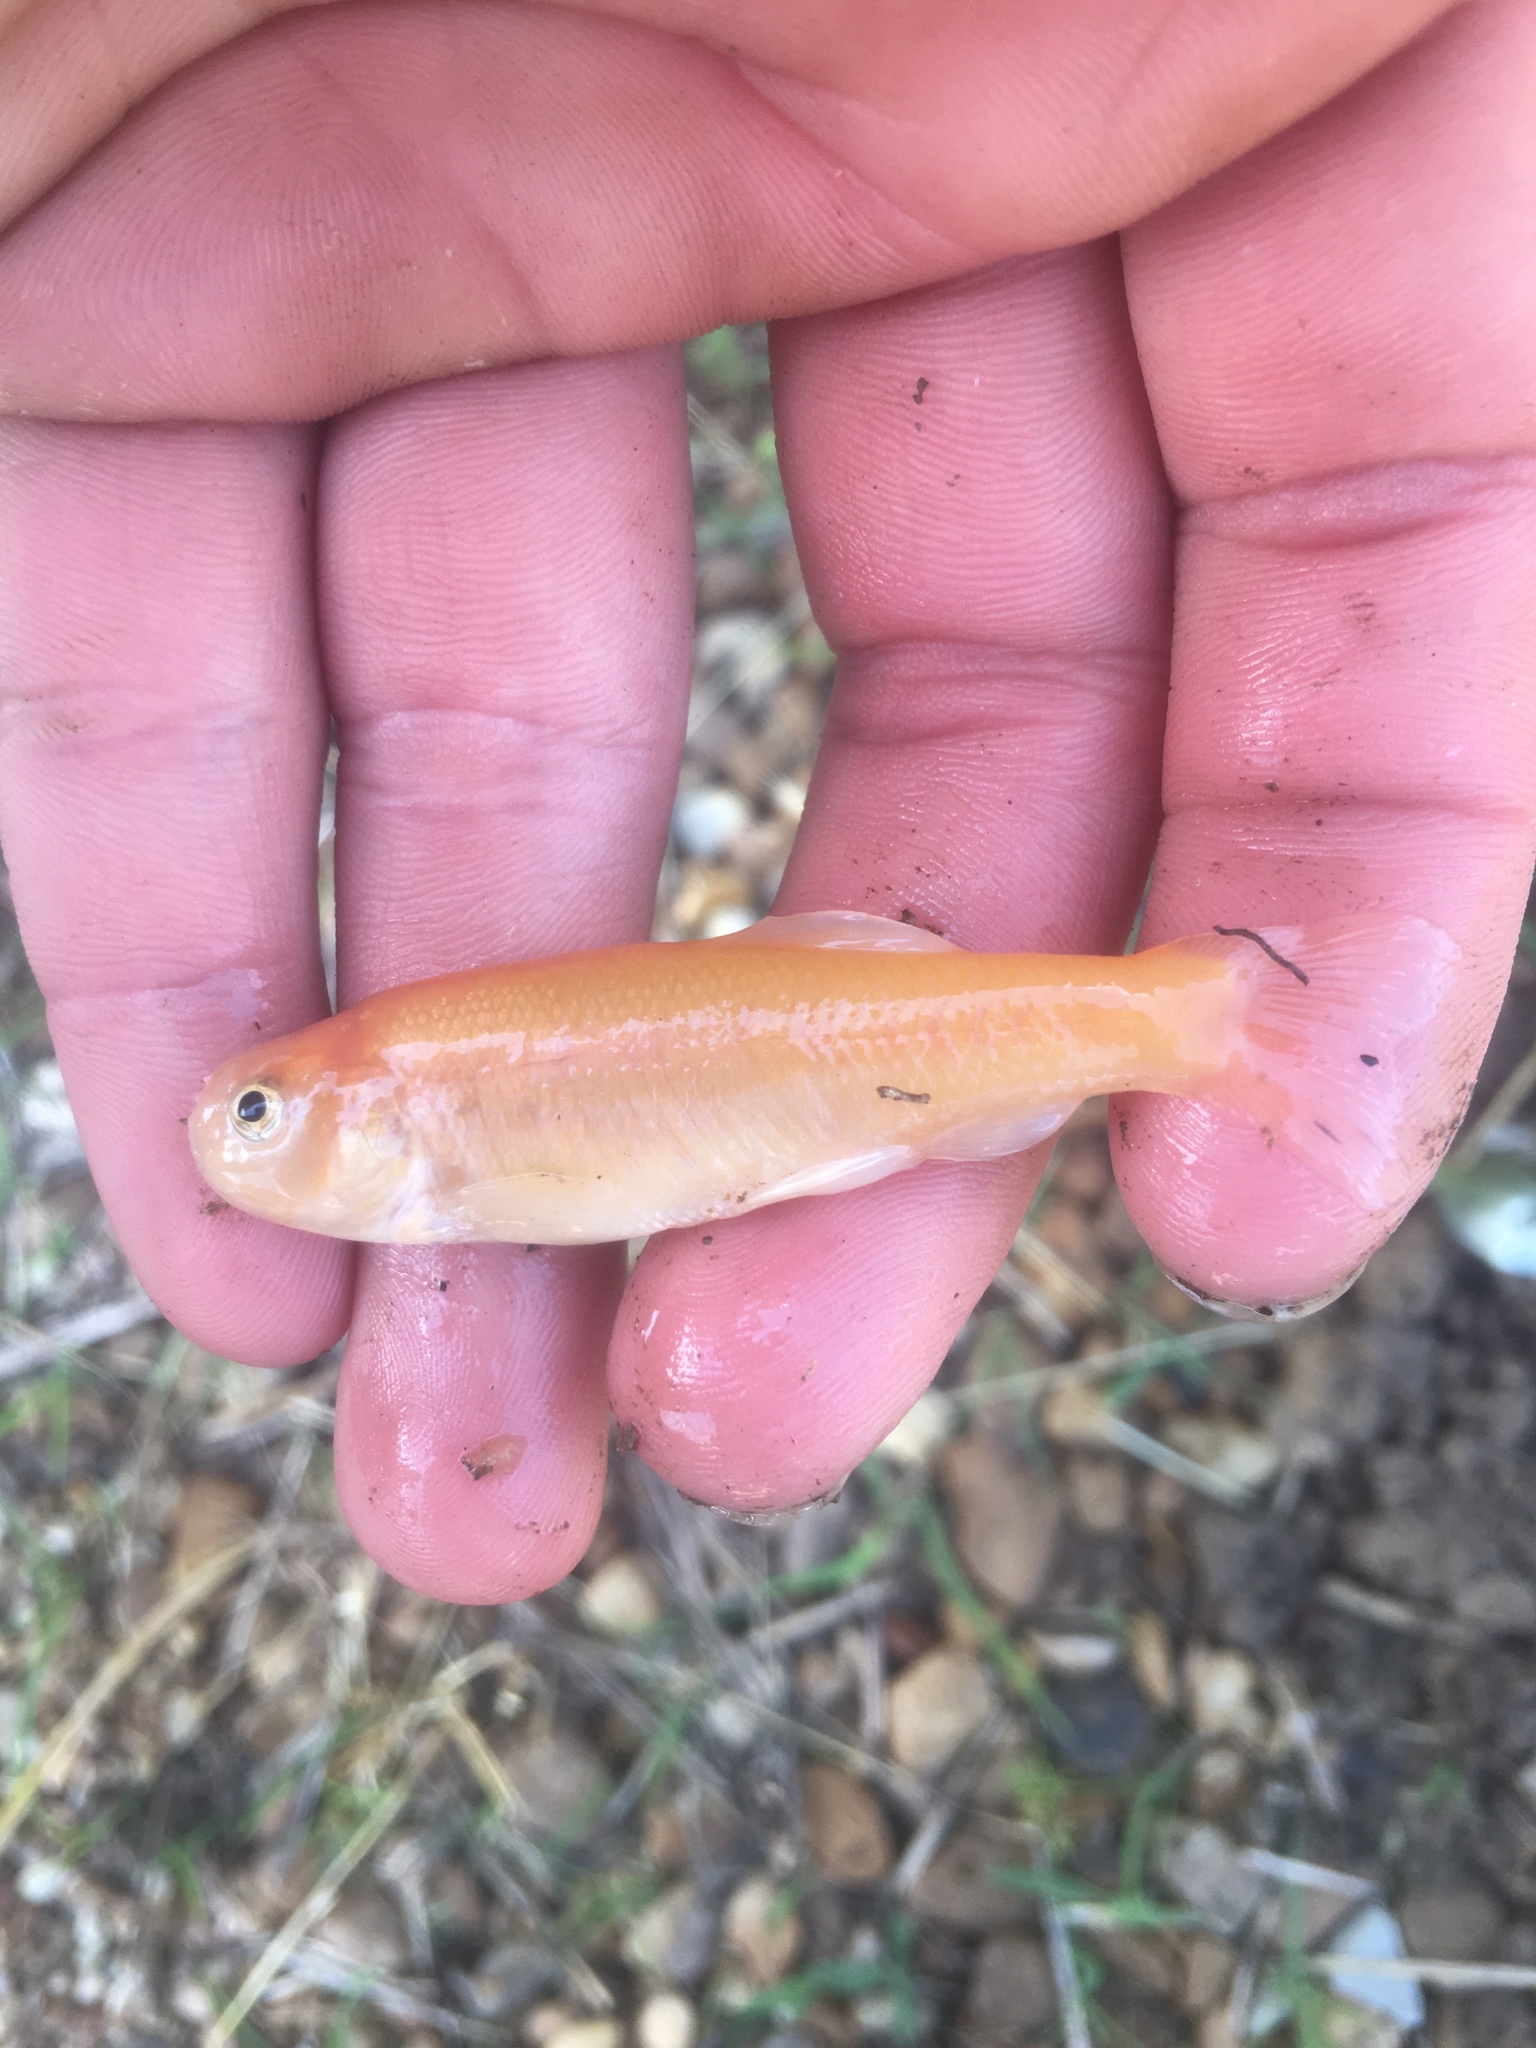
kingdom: Animalia
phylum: Chordata
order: Cypriniformes
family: Cyprinidae
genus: Pimephales
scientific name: Pimephales promelas
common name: Fathead minnow
